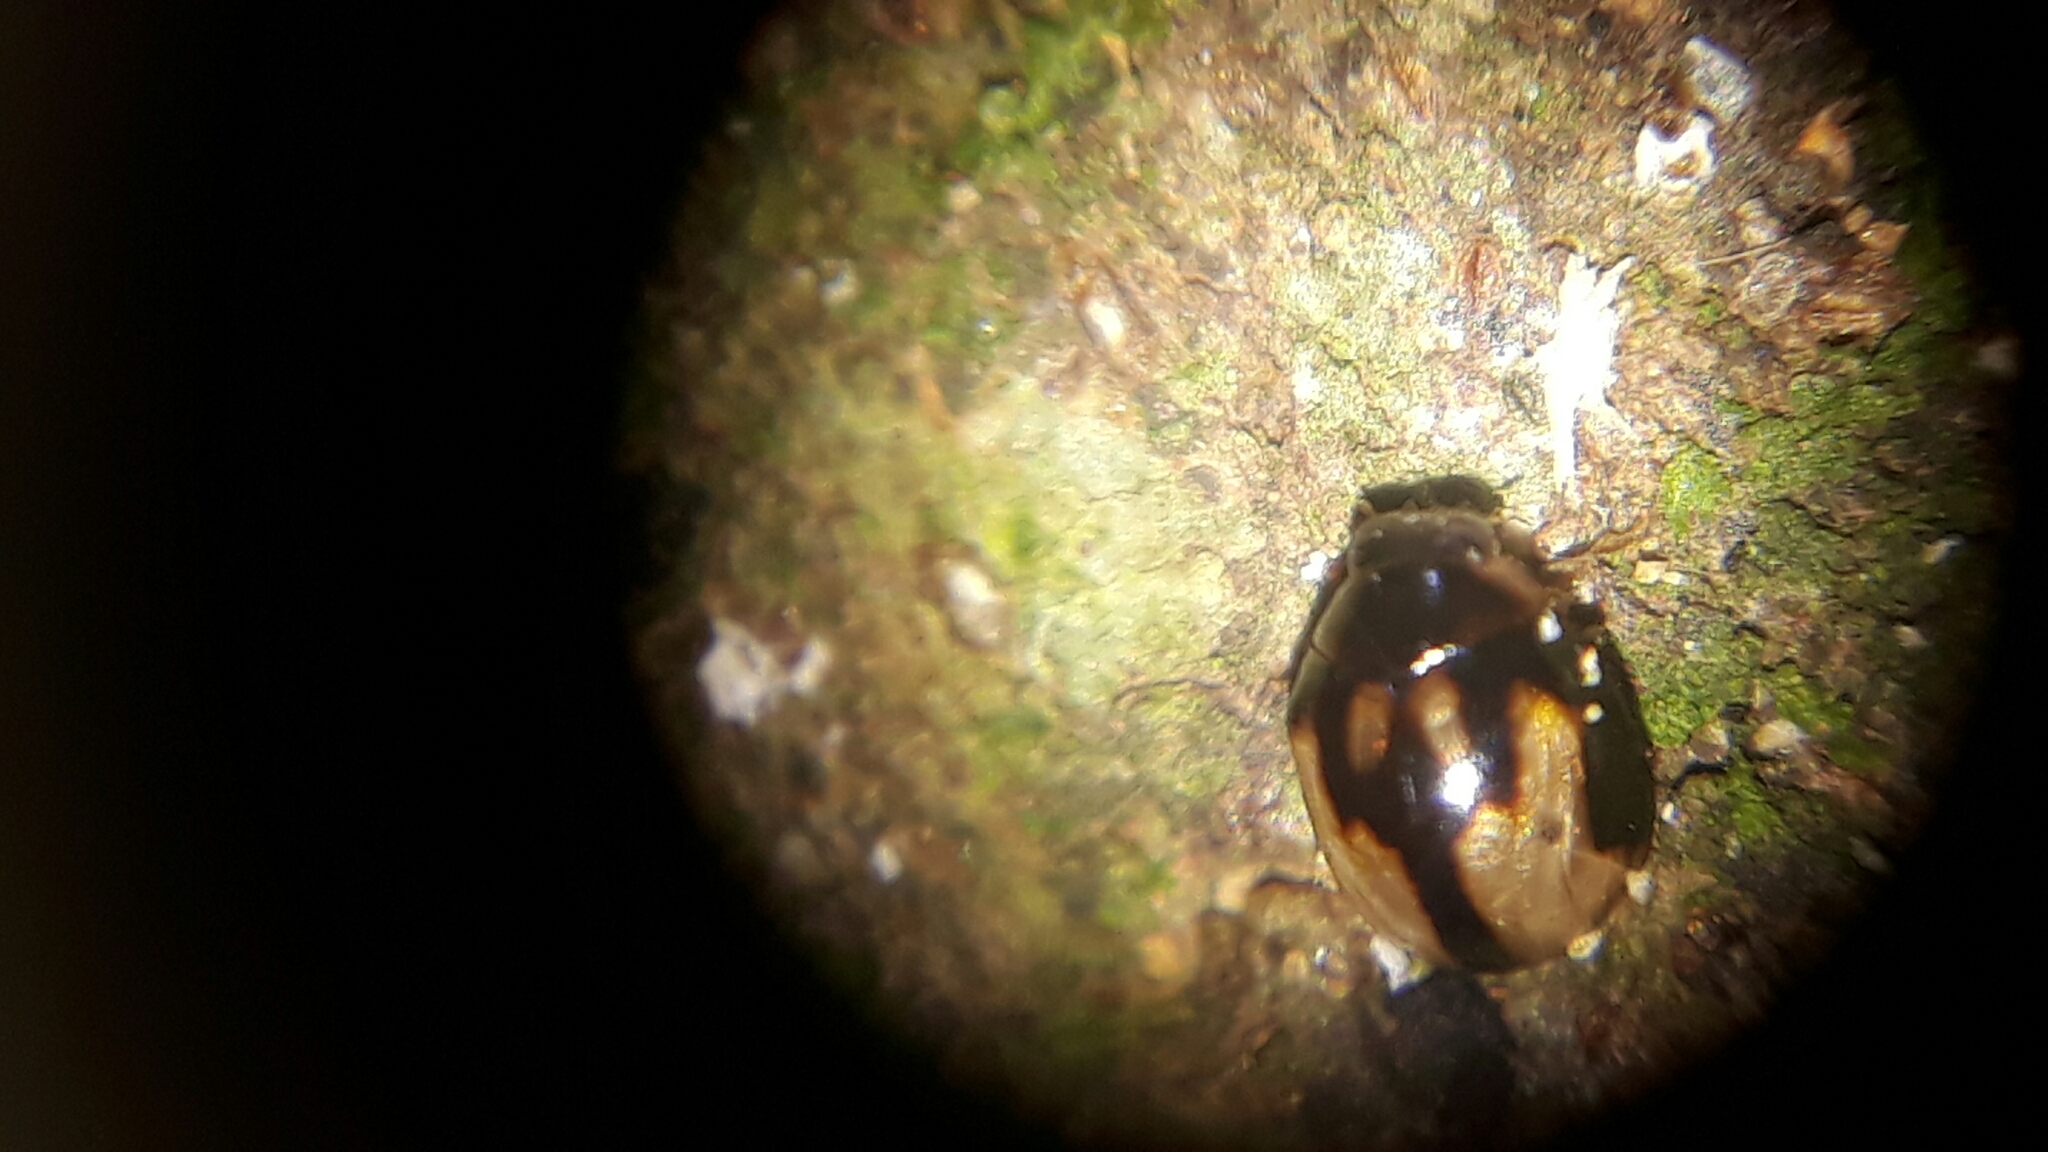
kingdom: Animalia
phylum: Arthropoda
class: Insecta
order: Coleoptera
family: Coccinellidae
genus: Calloeneis
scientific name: Calloeneis
